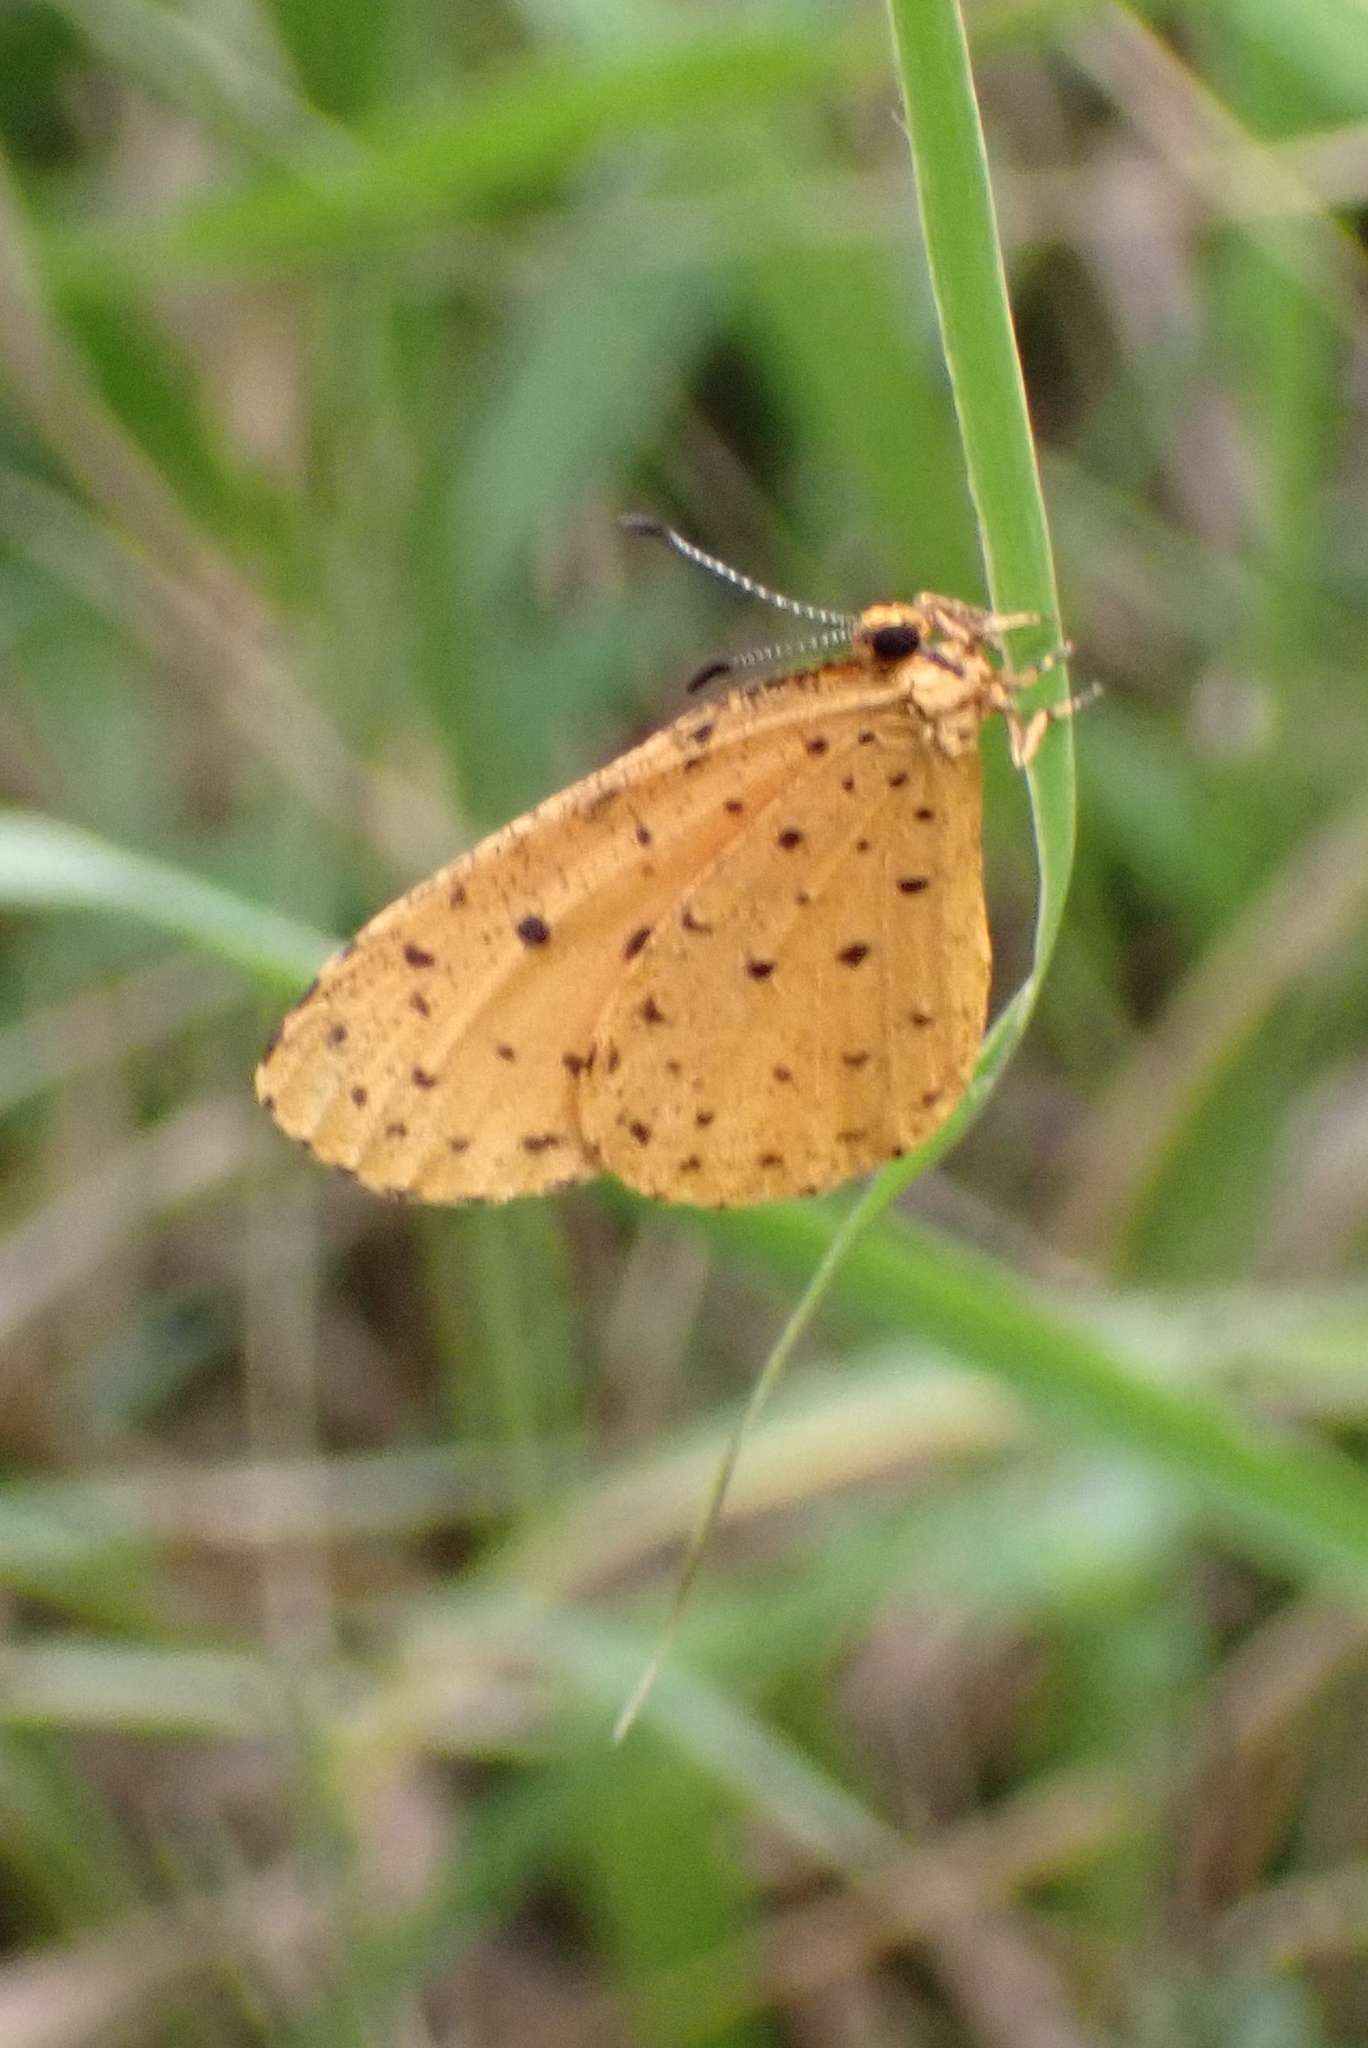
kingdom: Animalia
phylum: Arthropoda
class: Insecta
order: Lepidoptera
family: Lycaenidae
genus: Pentila
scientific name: Pentila tropicalis
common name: Spotted buff
